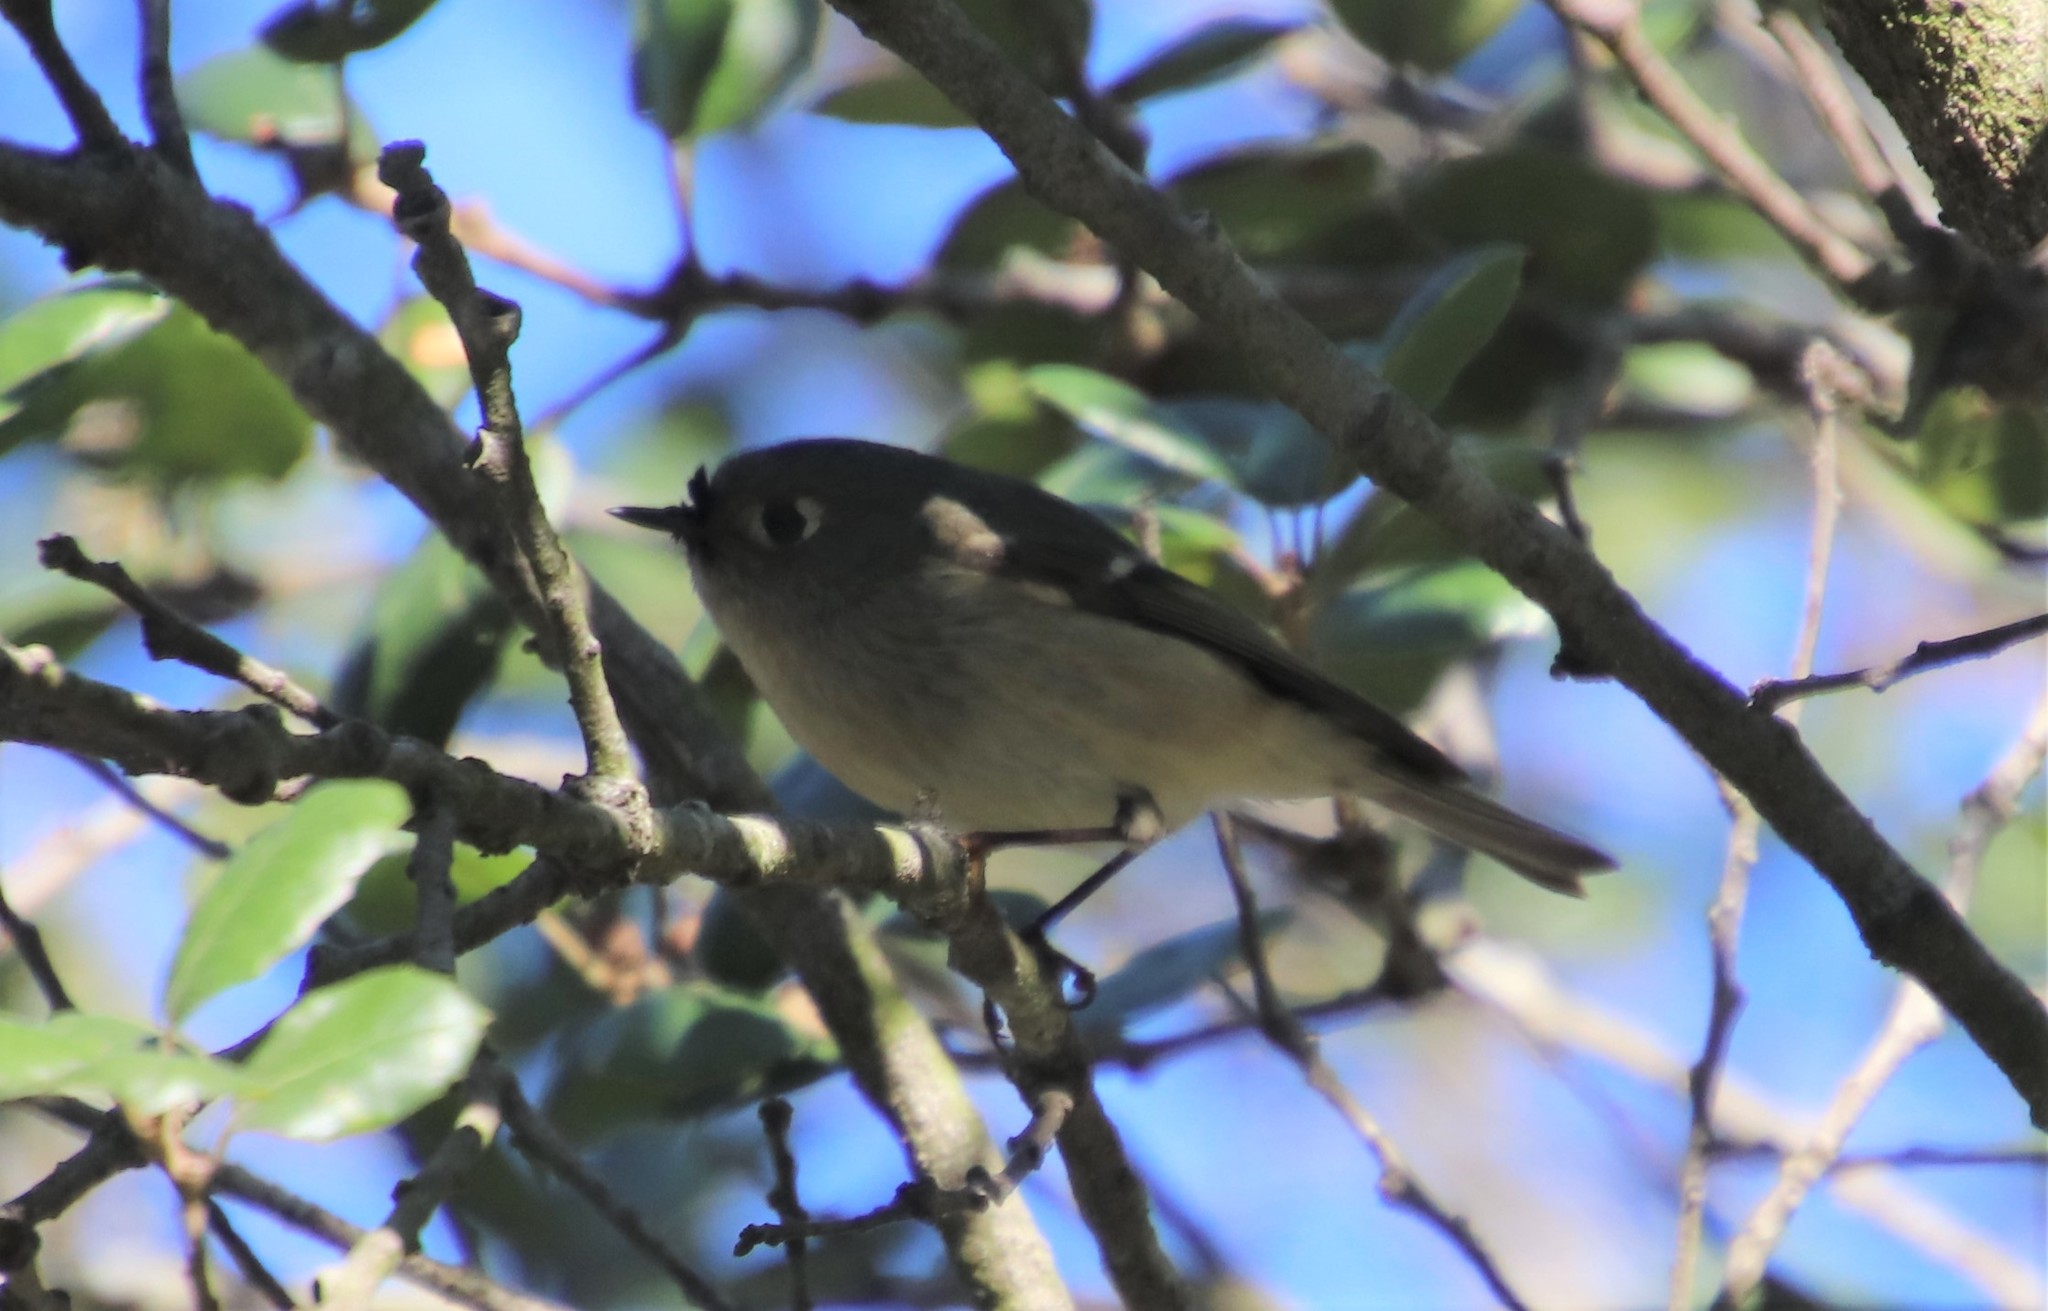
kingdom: Animalia
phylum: Chordata
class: Aves
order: Passeriformes
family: Regulidae
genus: Regulus
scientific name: Regulus calendula
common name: Ruby-crowned kinglet
